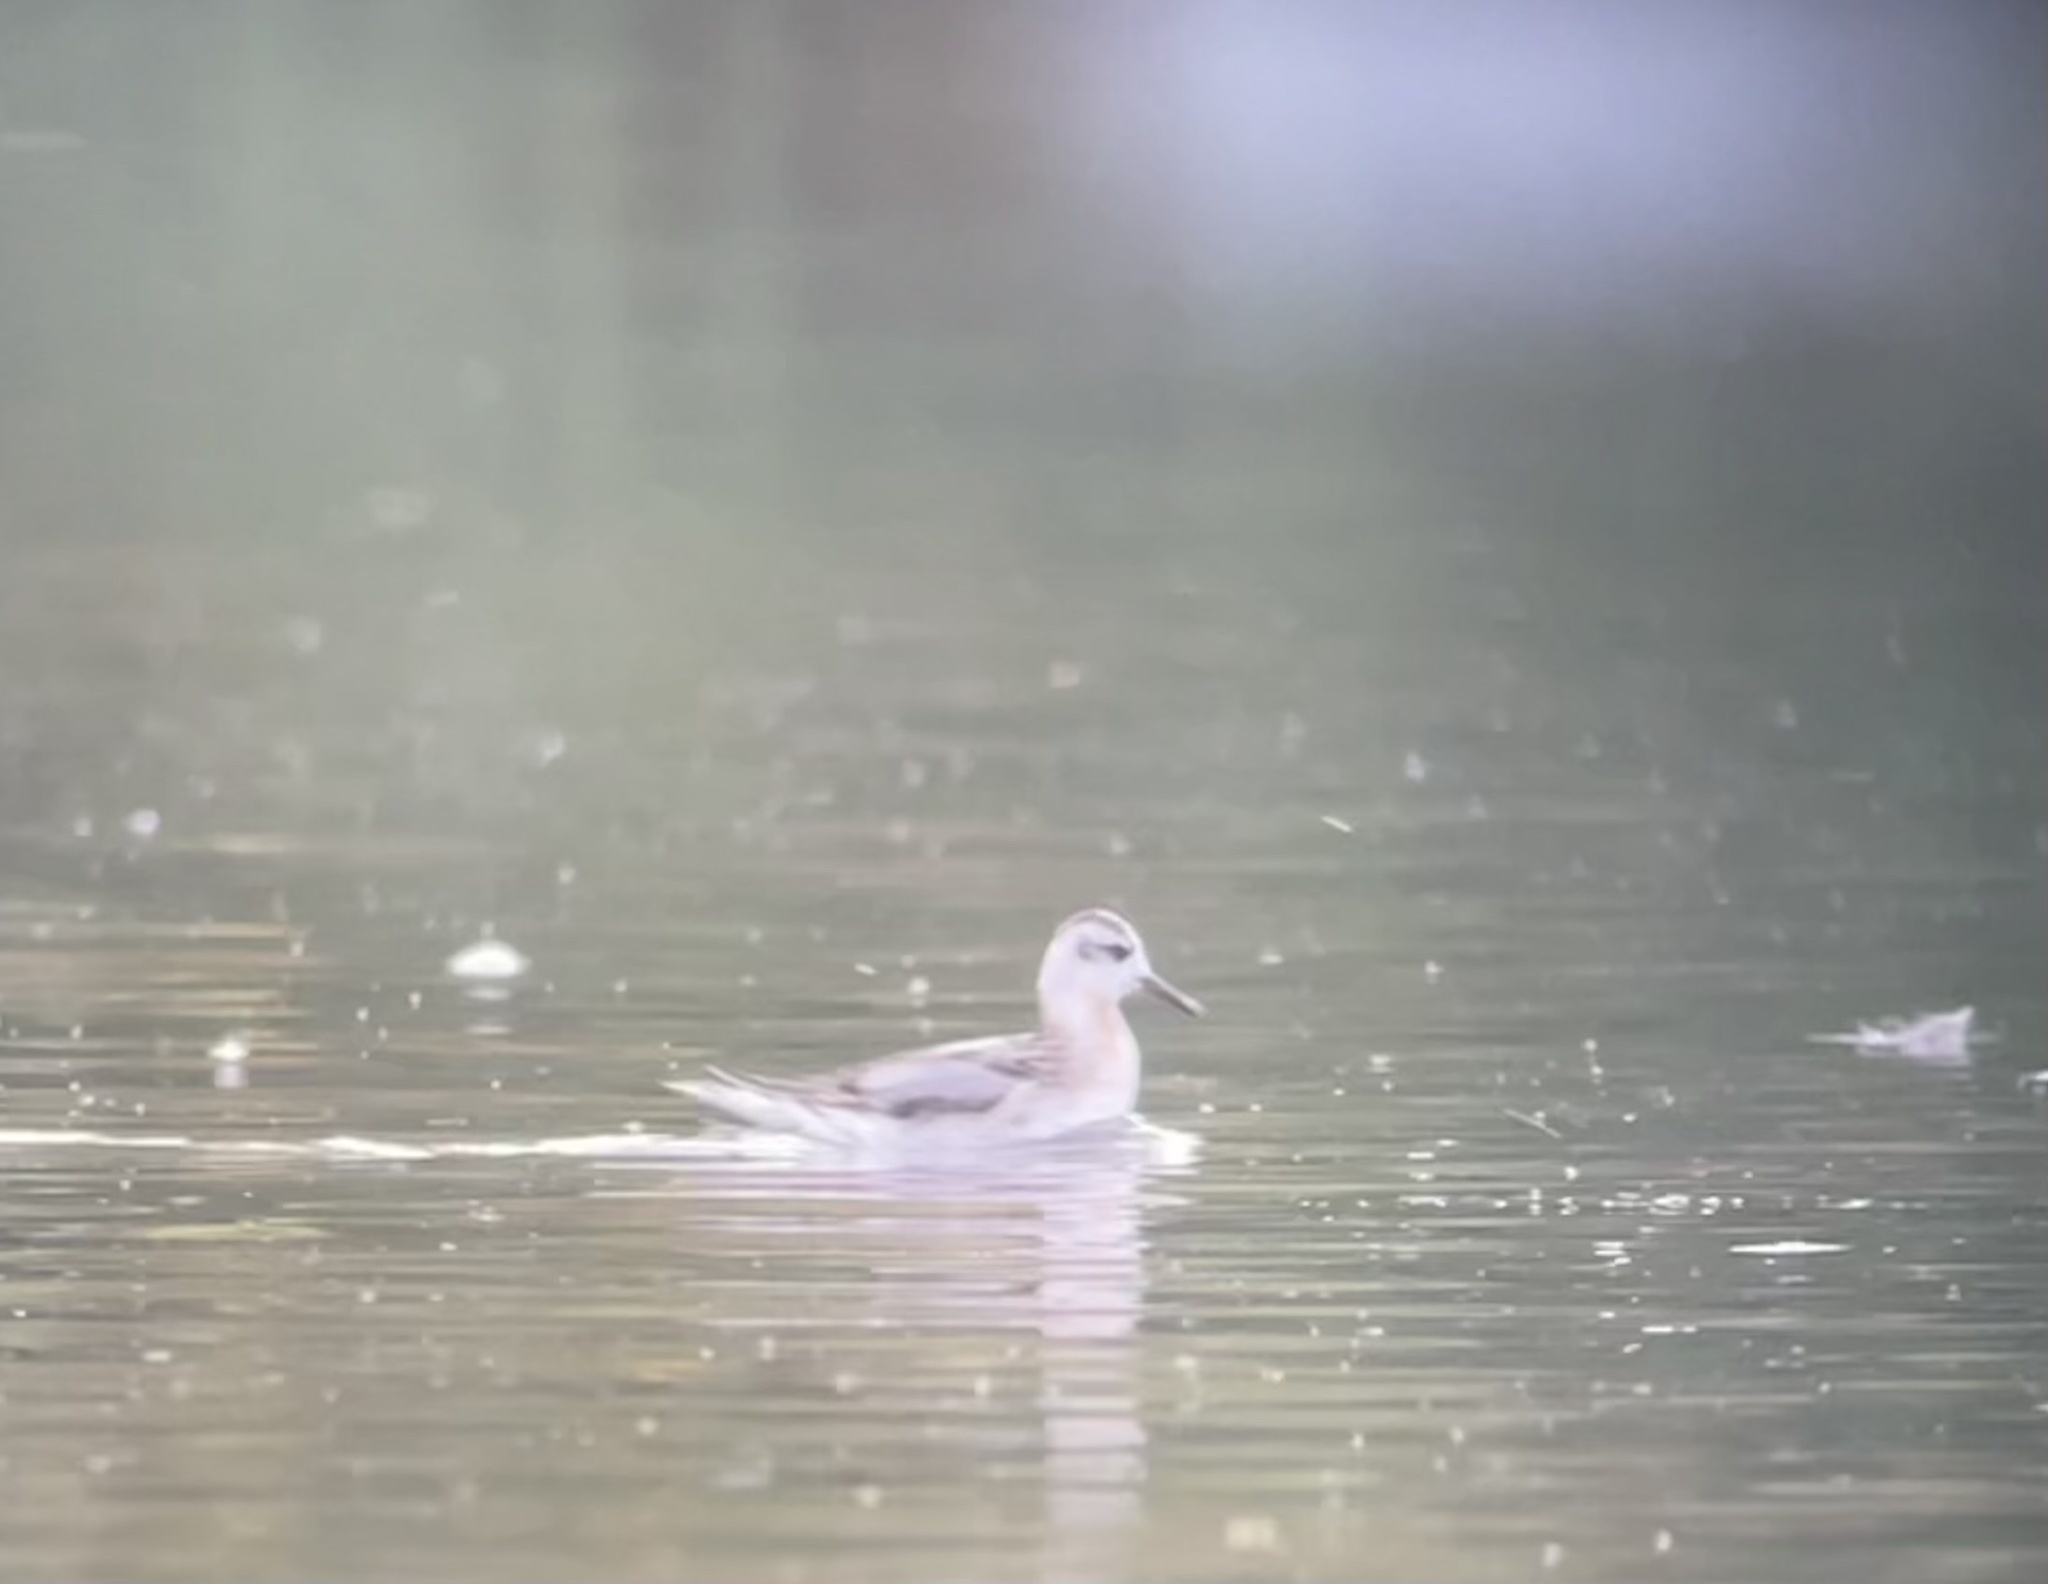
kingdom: Animalia
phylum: Chordata
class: Aves
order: Charadriiformes
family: Scolopacidae
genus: Phalaropus
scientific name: Phalaropus fulicarius
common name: Red phalarope
